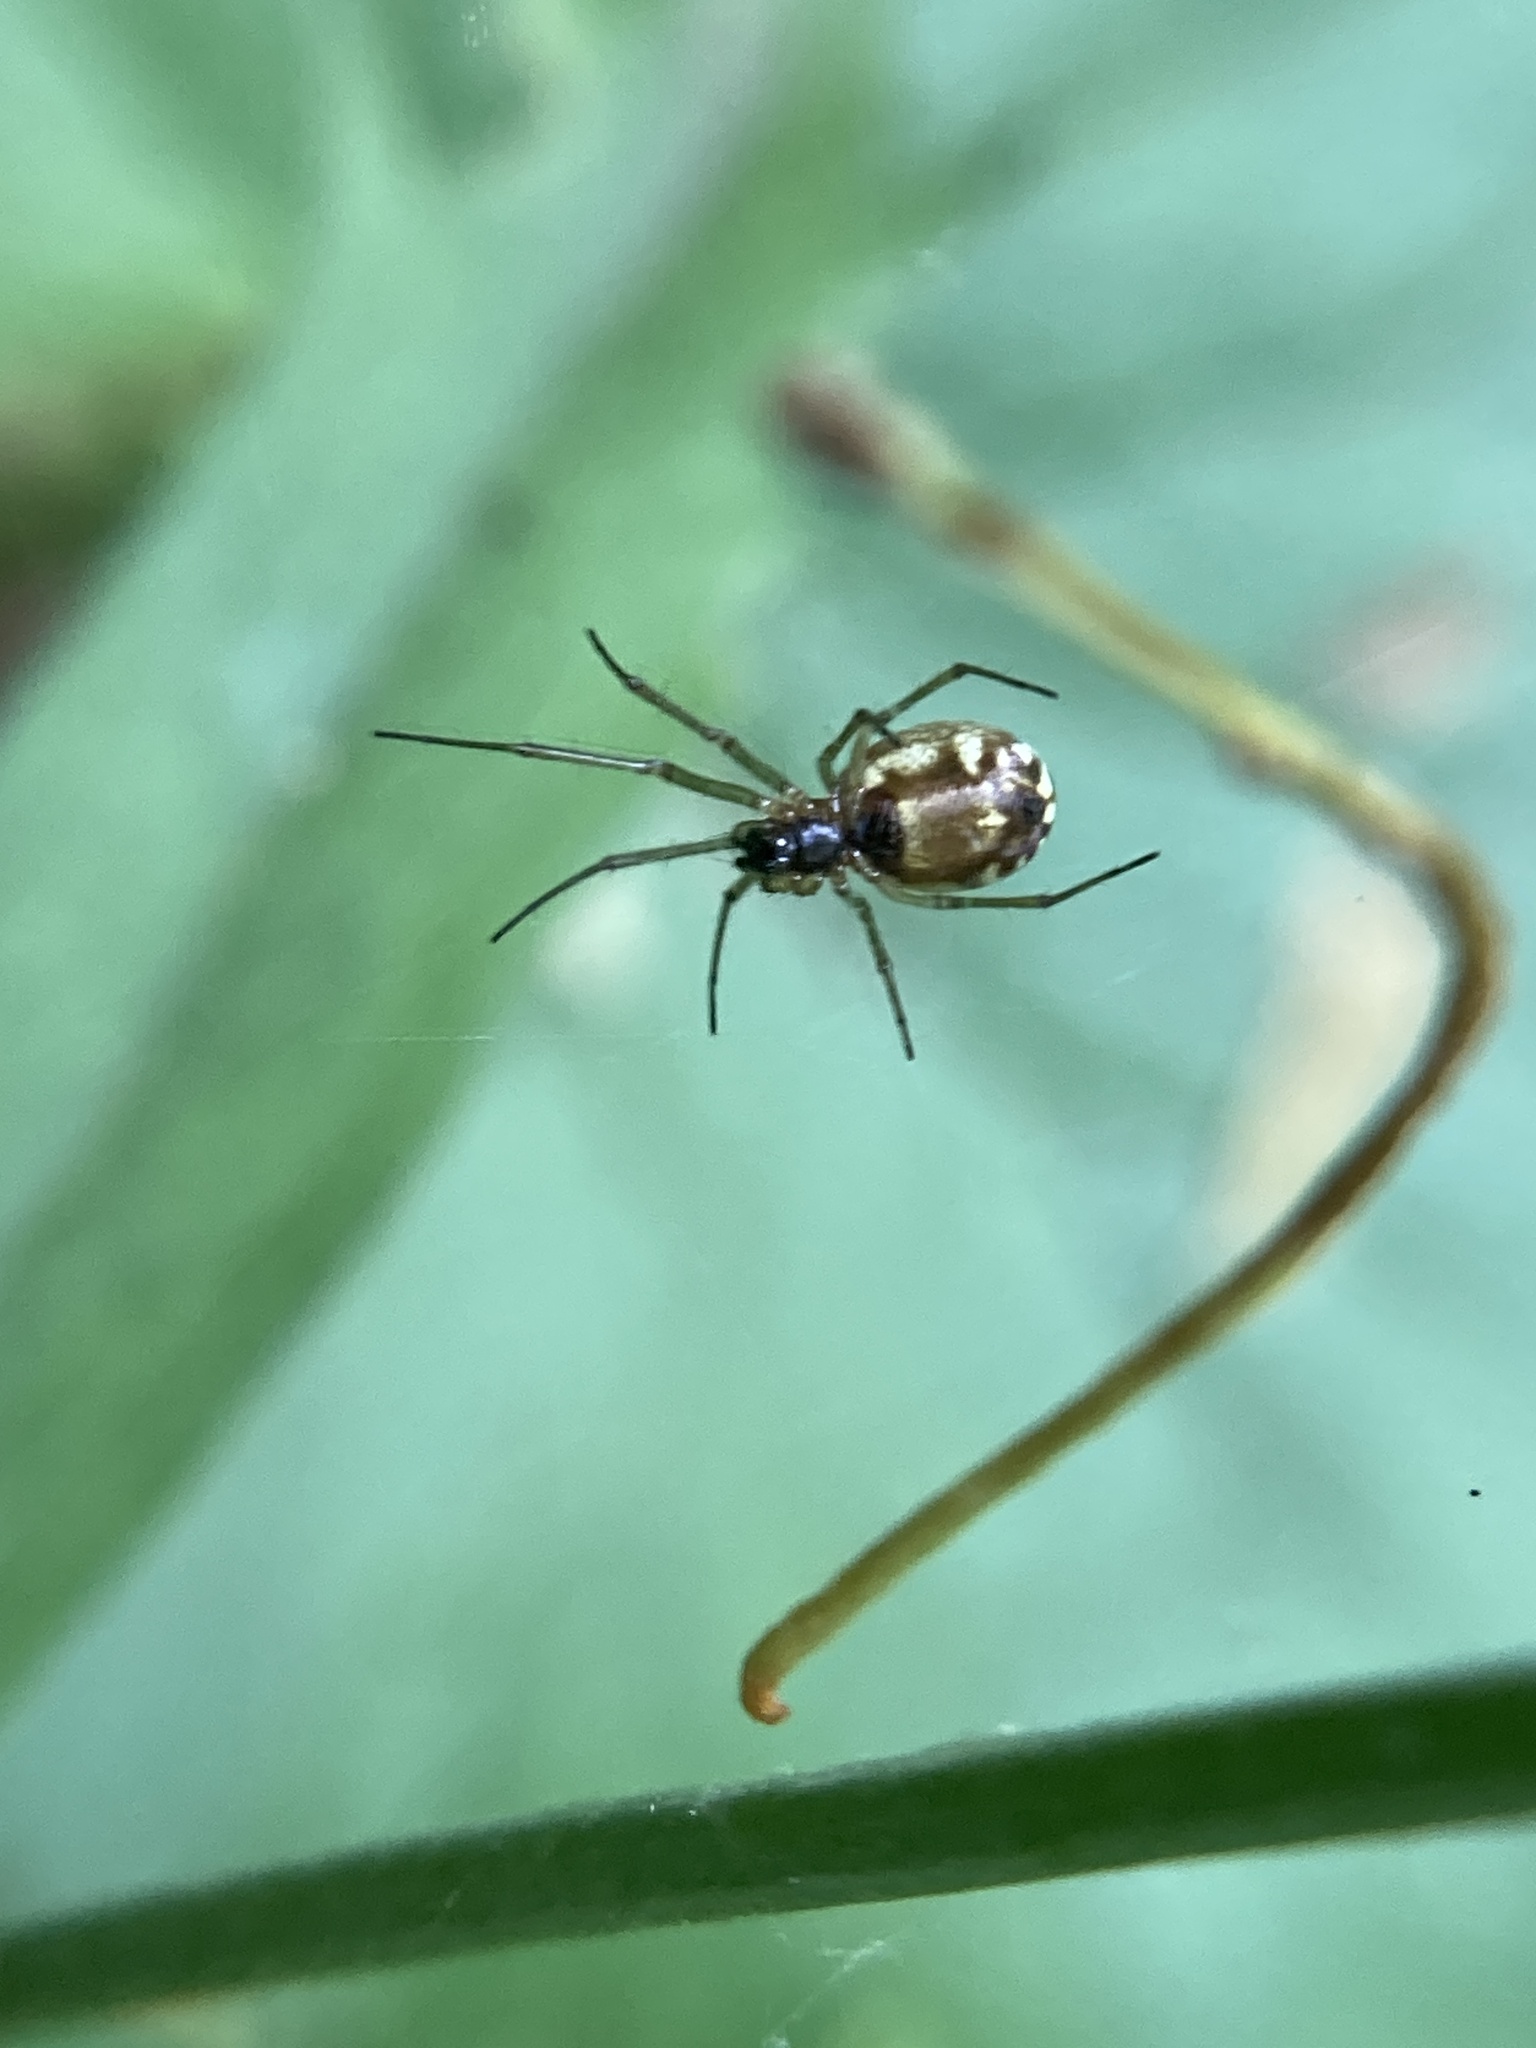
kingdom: Animalia
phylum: Arthropoda
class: Arachnida
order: Araneae
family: Linyphiidae
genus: Neriene
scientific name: Neriene peltata
